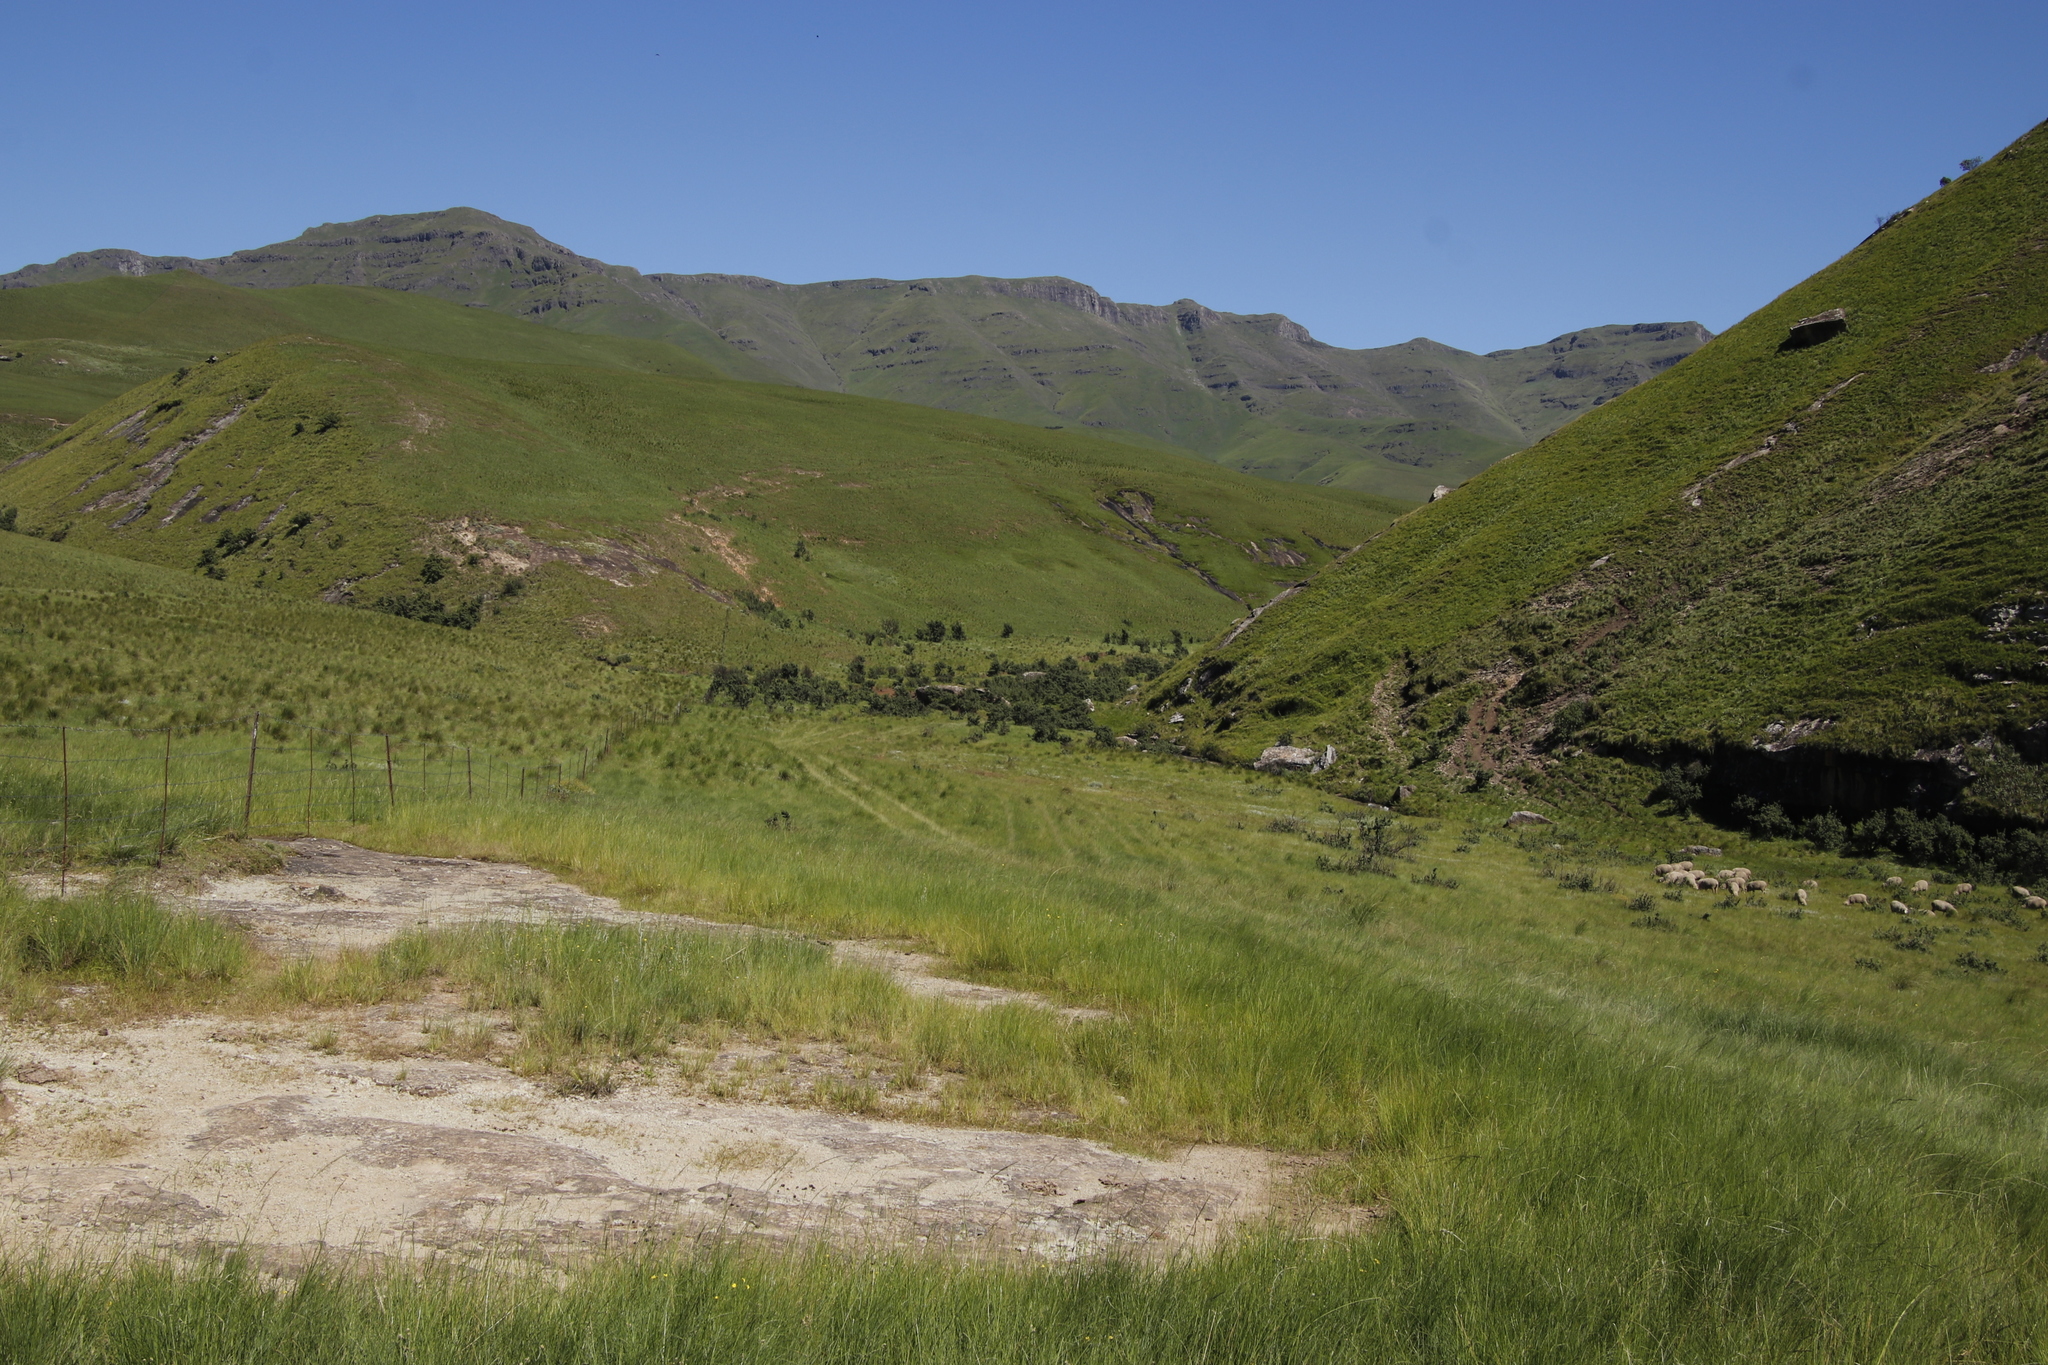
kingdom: Plantae
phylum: Tracheophyta
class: Magnoliopsida
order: Rosales
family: Rosaceae
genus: Leucosidea
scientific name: Leucosidea sericea
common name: Oldwood
